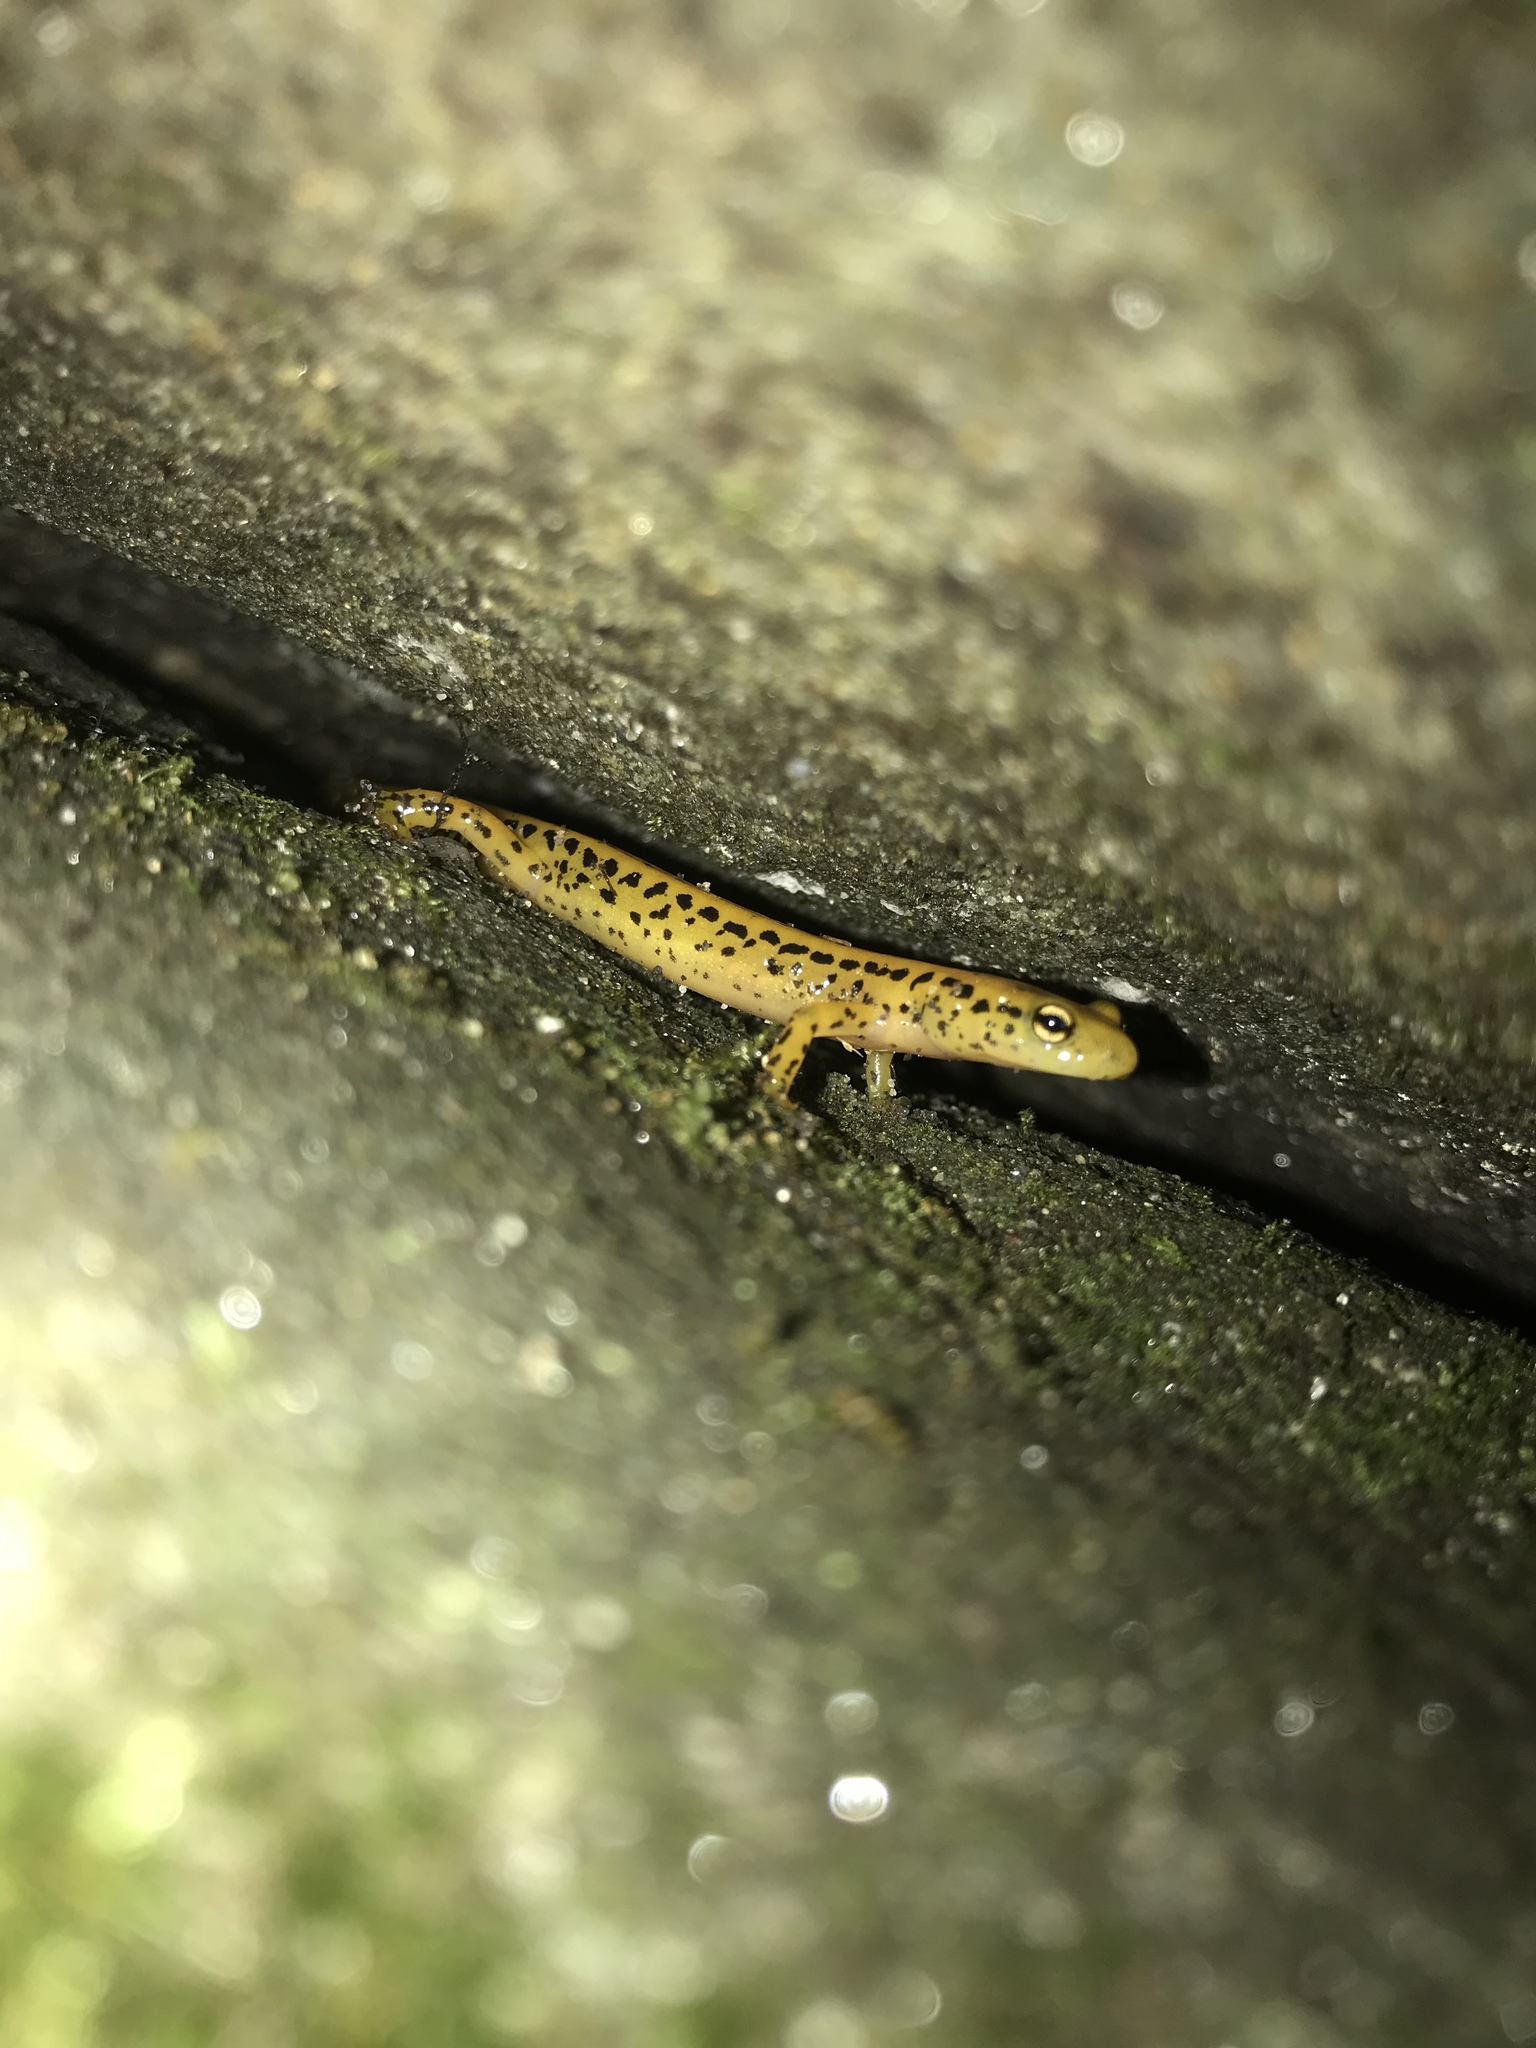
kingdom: Animalia
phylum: Chordata
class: Amphibia
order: Caudata
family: Plethodontidae
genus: Eurycea
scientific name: Eurycea longicauda
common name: Long-tailed salamander
